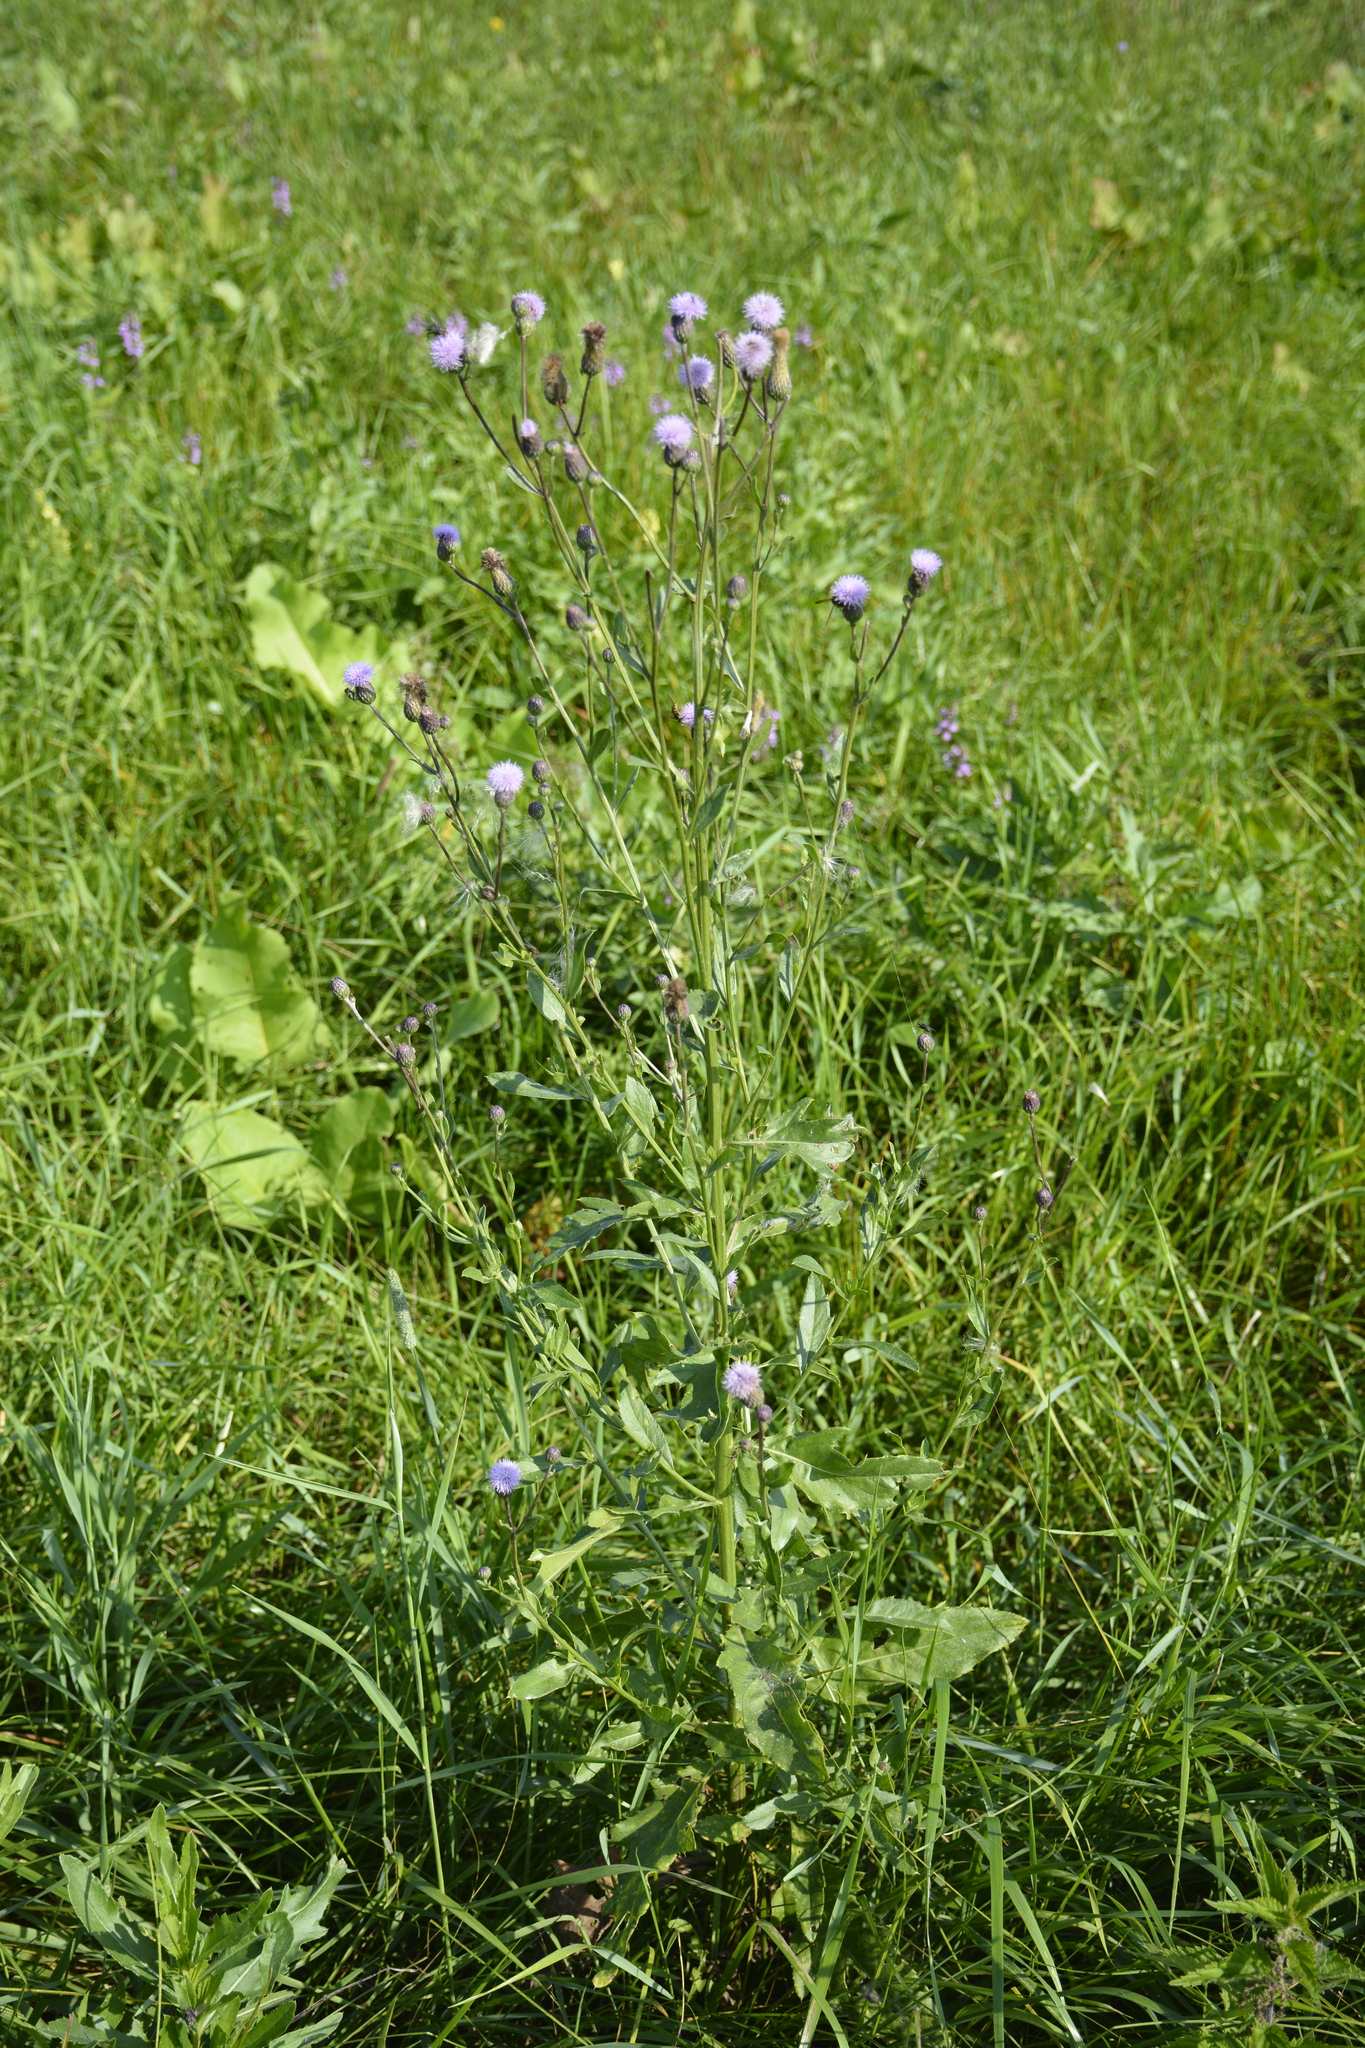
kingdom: Plantae
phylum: Tracheophyta
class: Magnoliopsida
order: Asterales
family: Asteraceae
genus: Cirsium
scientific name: Cirsium arvense
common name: Creeping thistle
